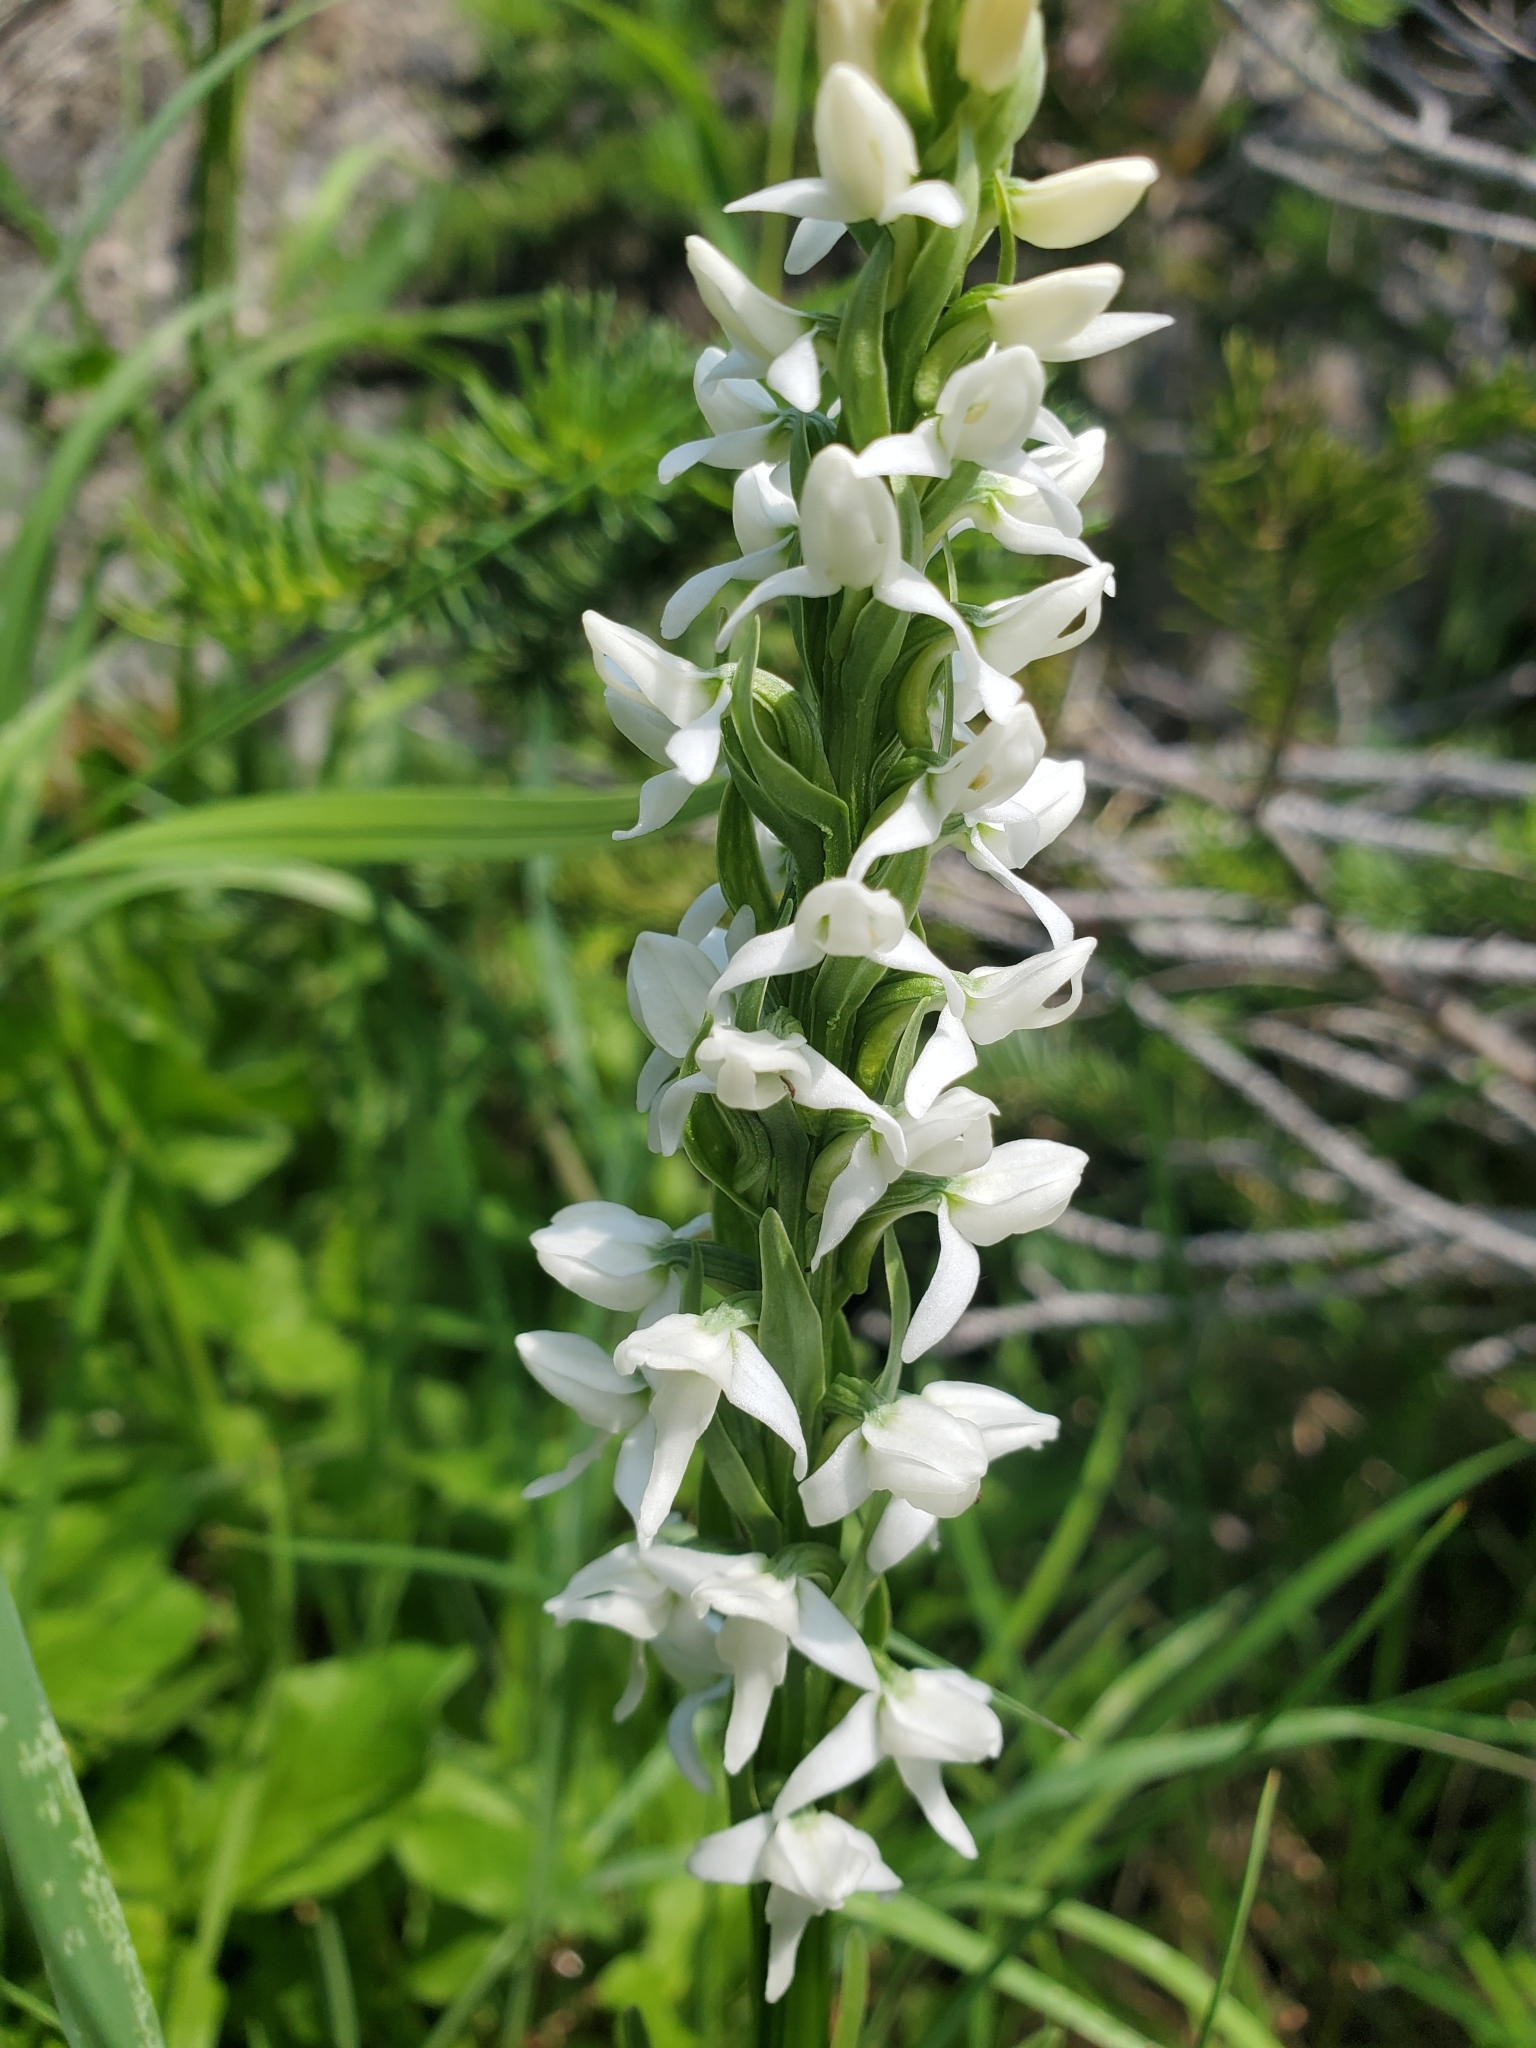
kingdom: Plantae
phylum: Tracheophyta
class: Liliopsida
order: Asparagales
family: Orchidaceae
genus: Platanthera
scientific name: Platanthera dilatata
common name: Bog candles
